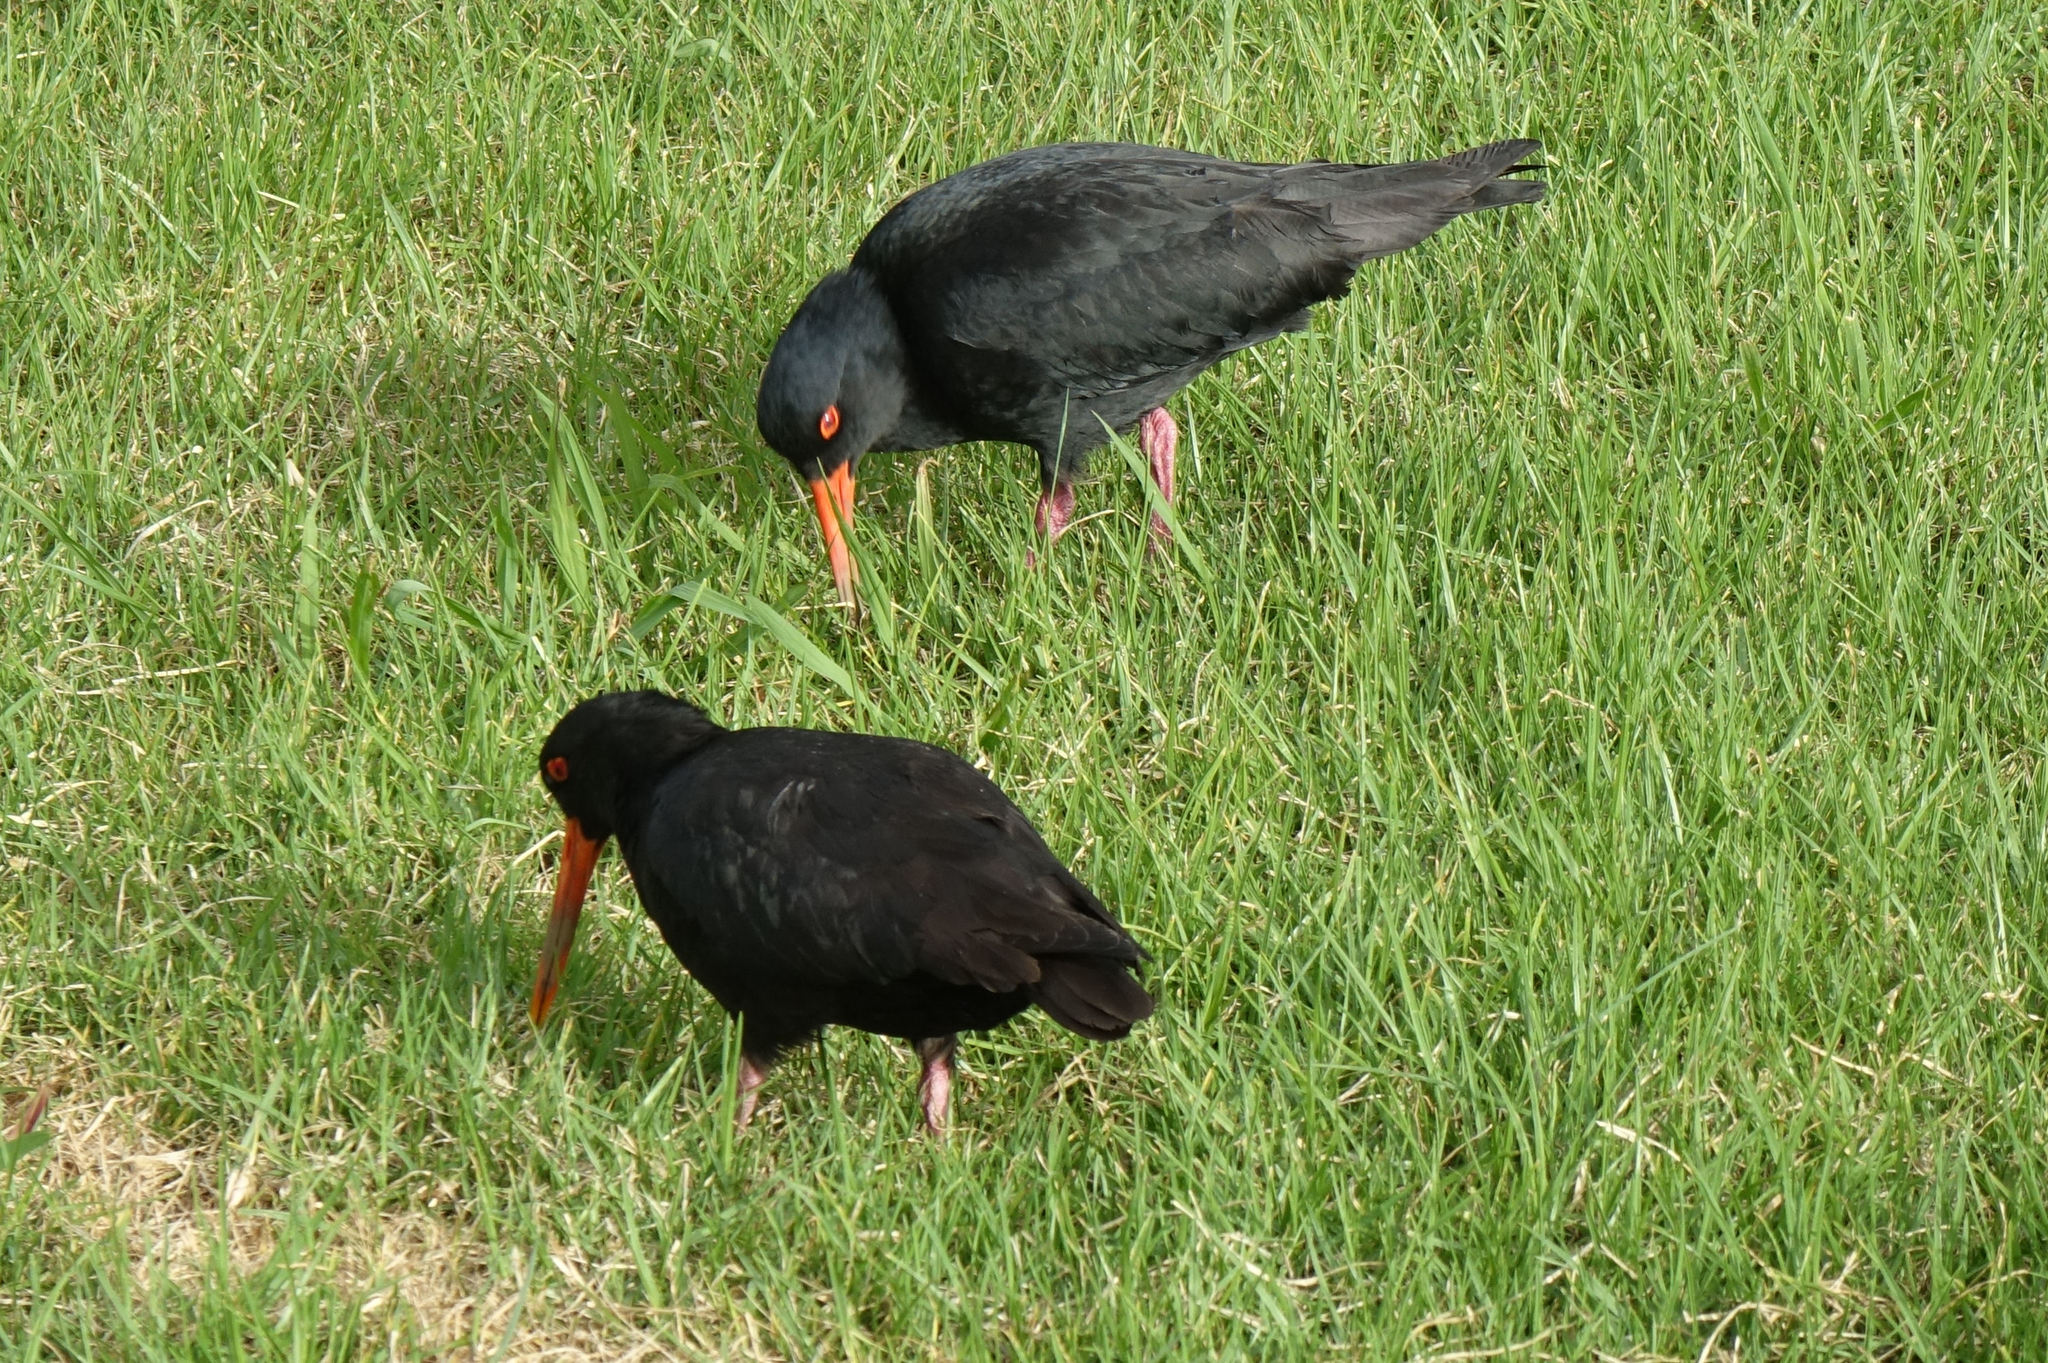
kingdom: Animalia
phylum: Chordata
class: Aves
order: Charadriiformes
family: Haematopodidae
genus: Haematopus
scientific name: Haematopus unicolor
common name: Variable oystercatcher
